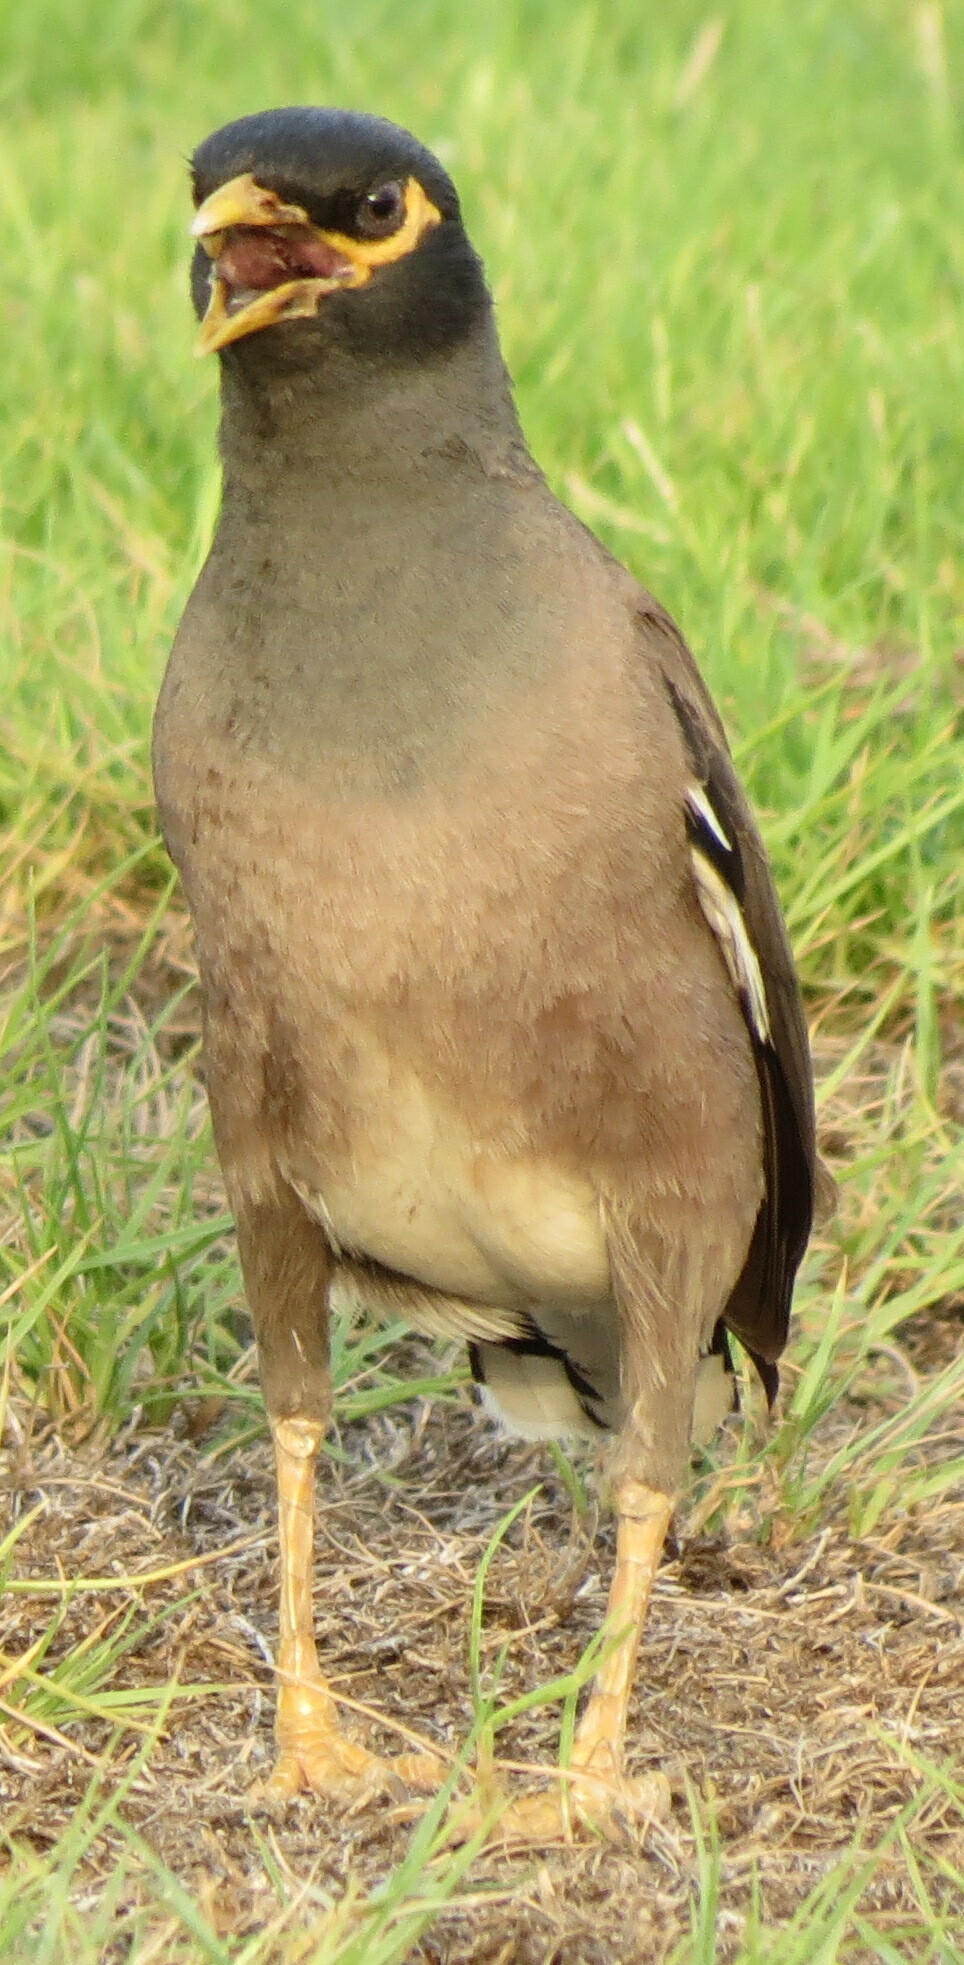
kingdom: Animalia
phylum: Chordata
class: Aves
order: Passeriformes
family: Sturnidae
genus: Acridotheres
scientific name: Acridotheres tristis
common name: Common myna
